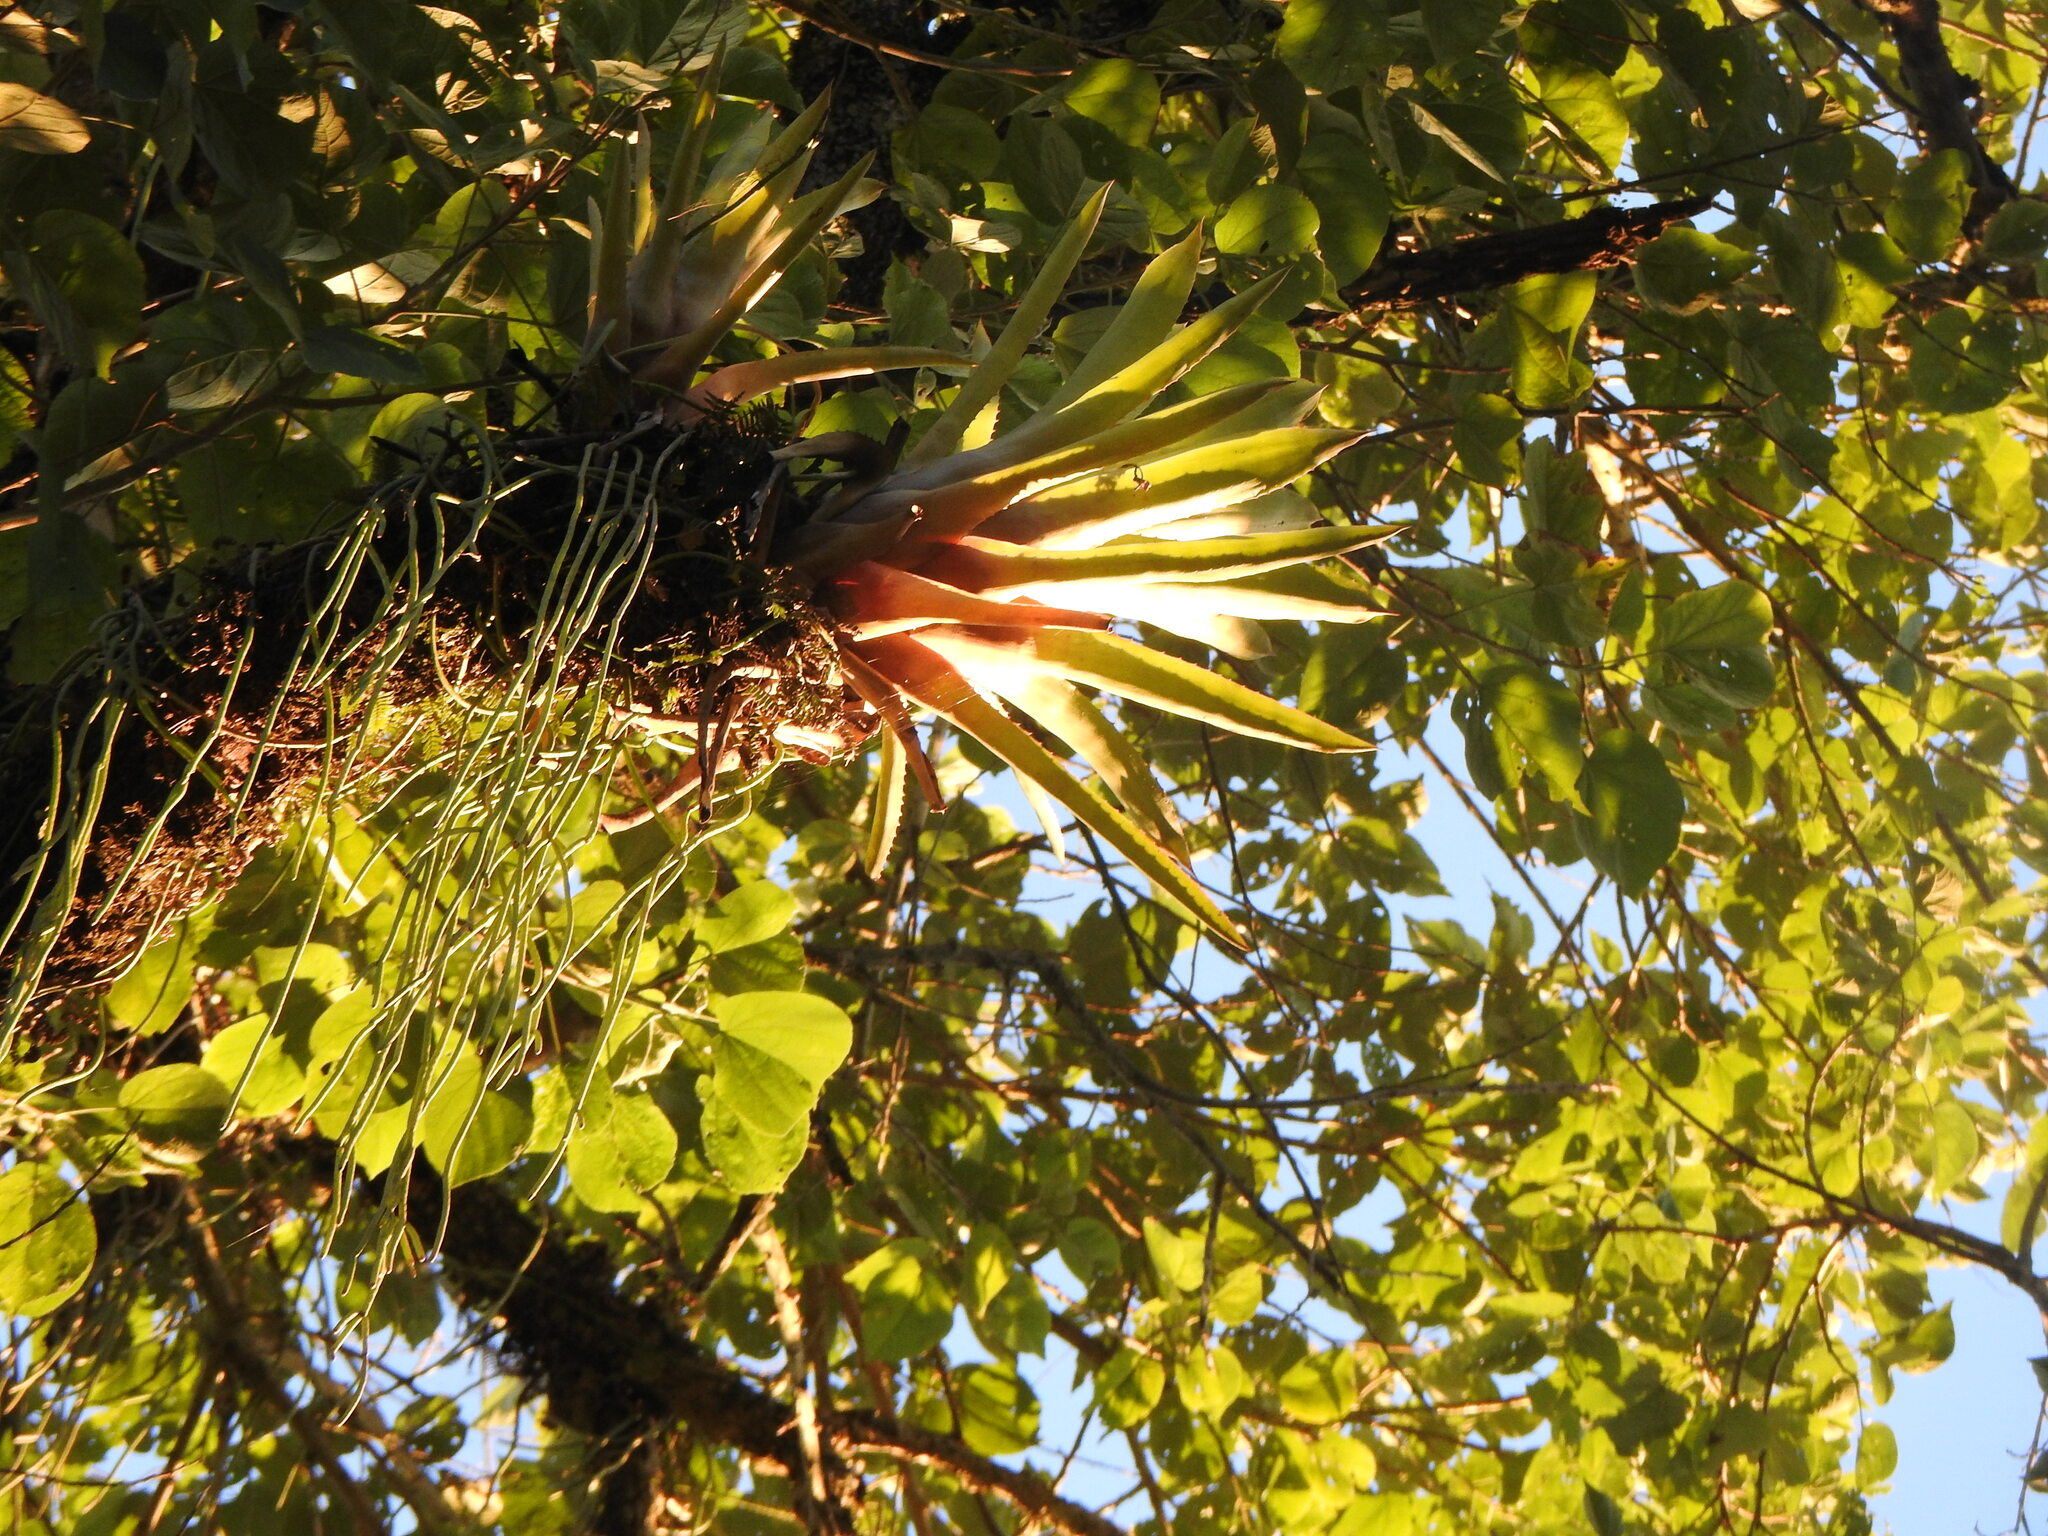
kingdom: Plantae
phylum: Tracheophyta
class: Liliopsida
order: Poales
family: Bromeliaceae
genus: Aechmea
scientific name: Aechmea distichantha
